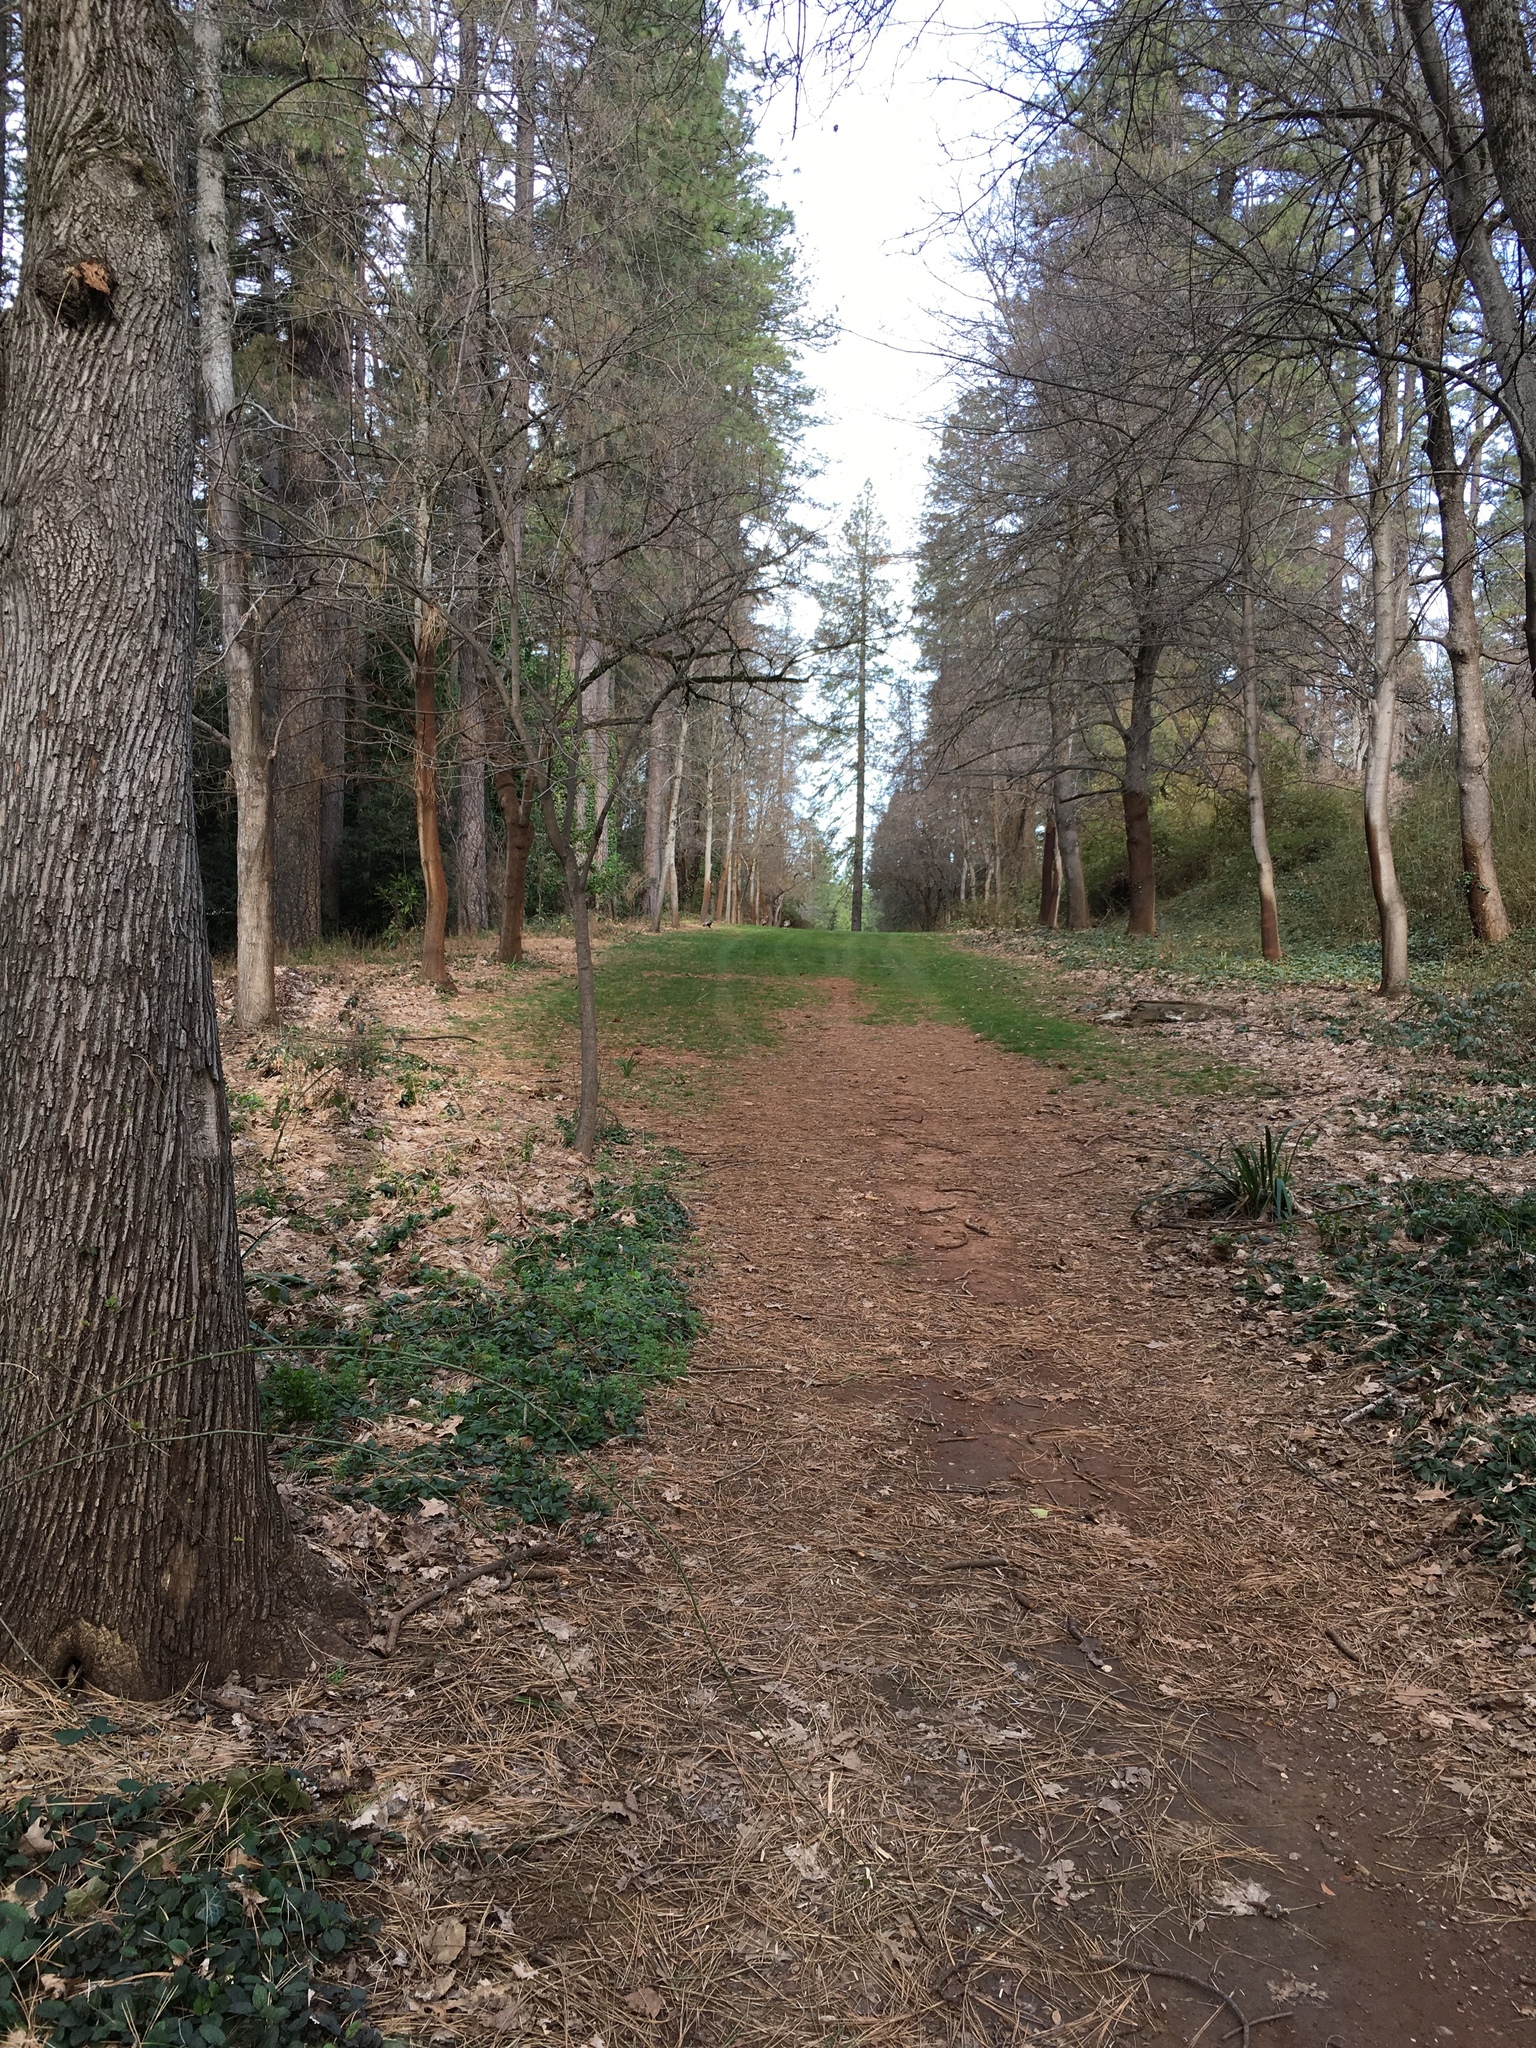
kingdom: Animalia
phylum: Chordata
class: Aves
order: Galliformes
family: Phasianidae
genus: Meleagris
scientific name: Meleagris gallopavo
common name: Wild turkey
